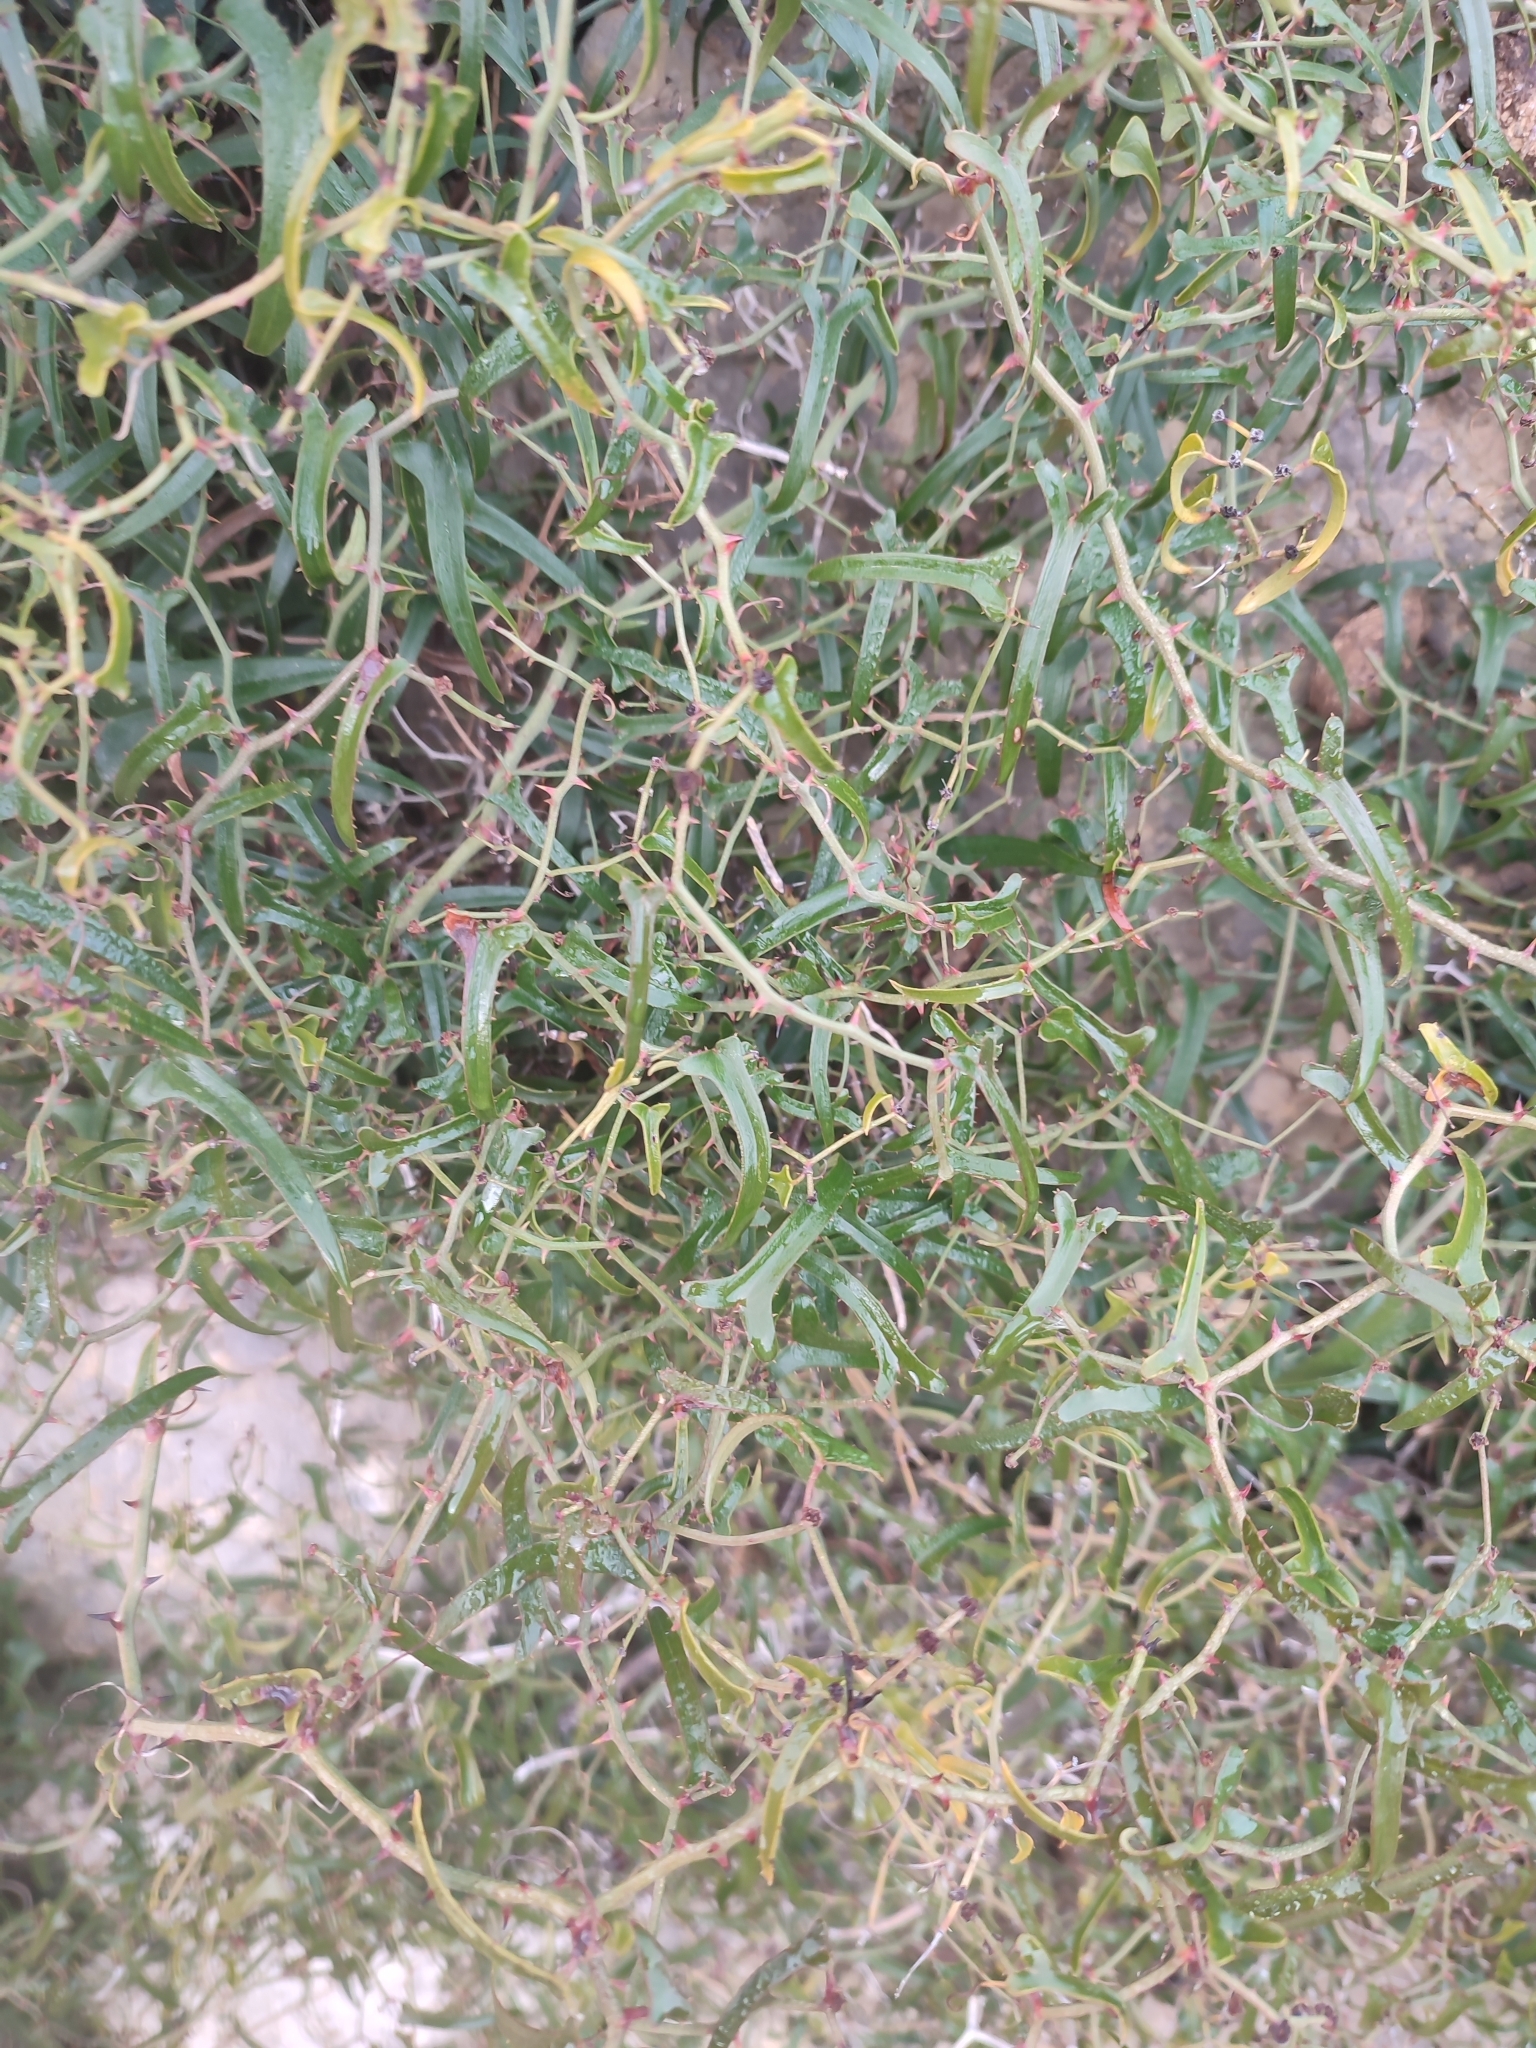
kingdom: Plantae
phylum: Tracheophyta
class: Liliopsida
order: Liliales
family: Smilacaceae
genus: Smilax
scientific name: Smilax aspera
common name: Common smilax
